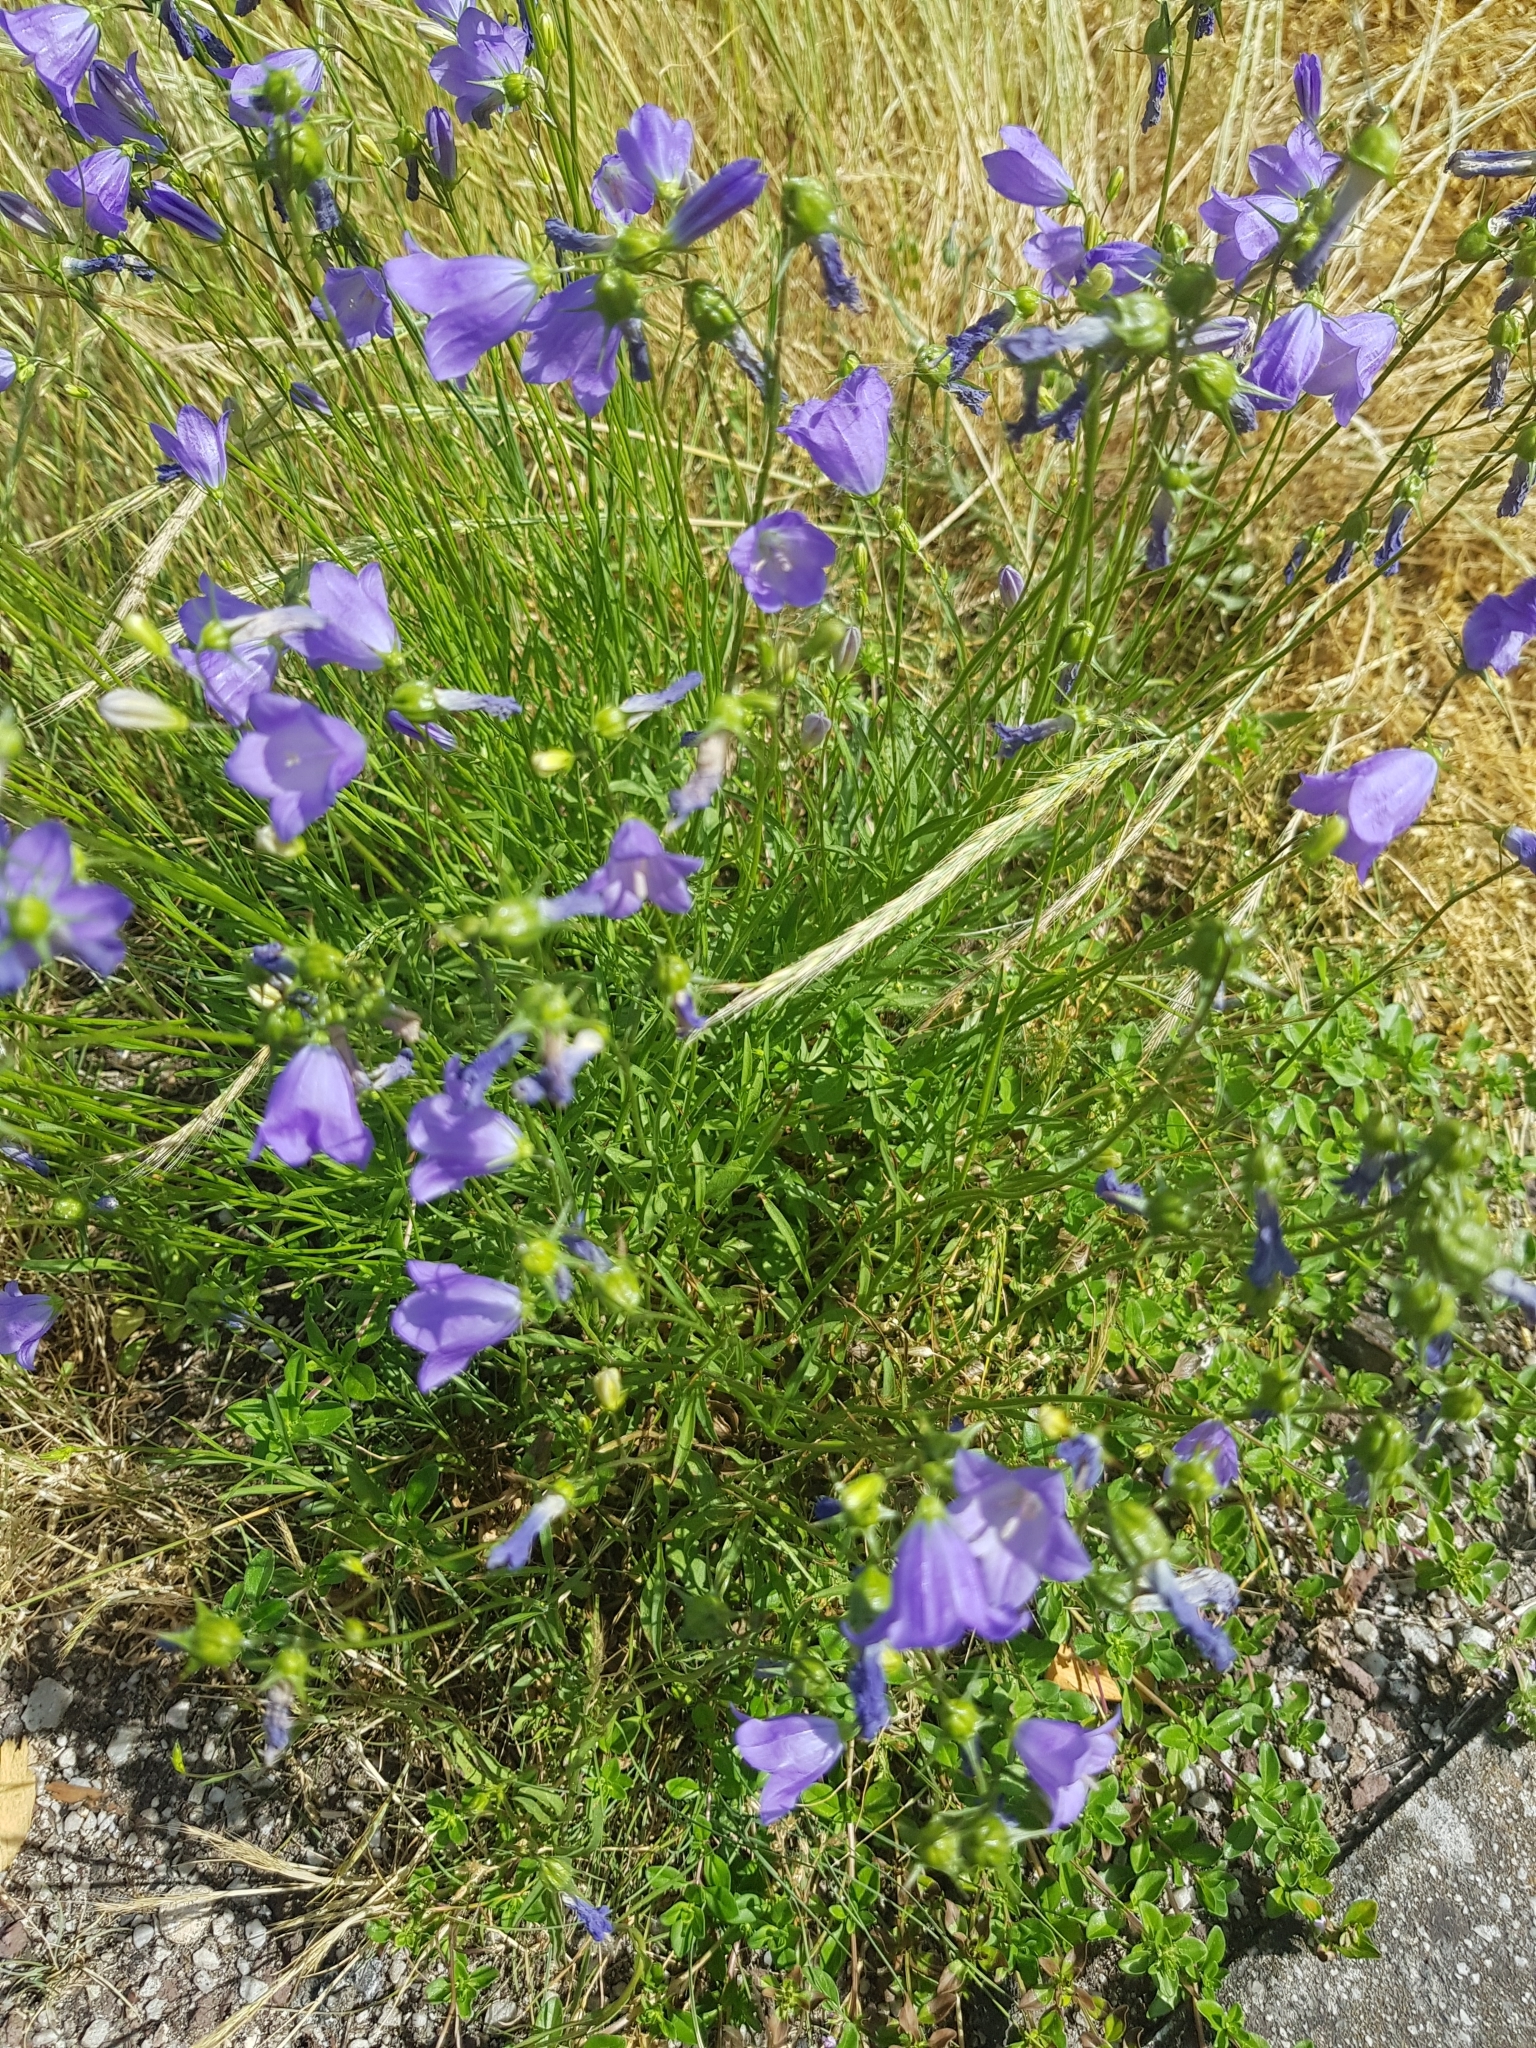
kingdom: Plantae
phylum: Tracheophyta
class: Magnoliopsida
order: Asterales
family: Campanulaceae
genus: Campanula
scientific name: Campanula rotundifolia
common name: Harebell
